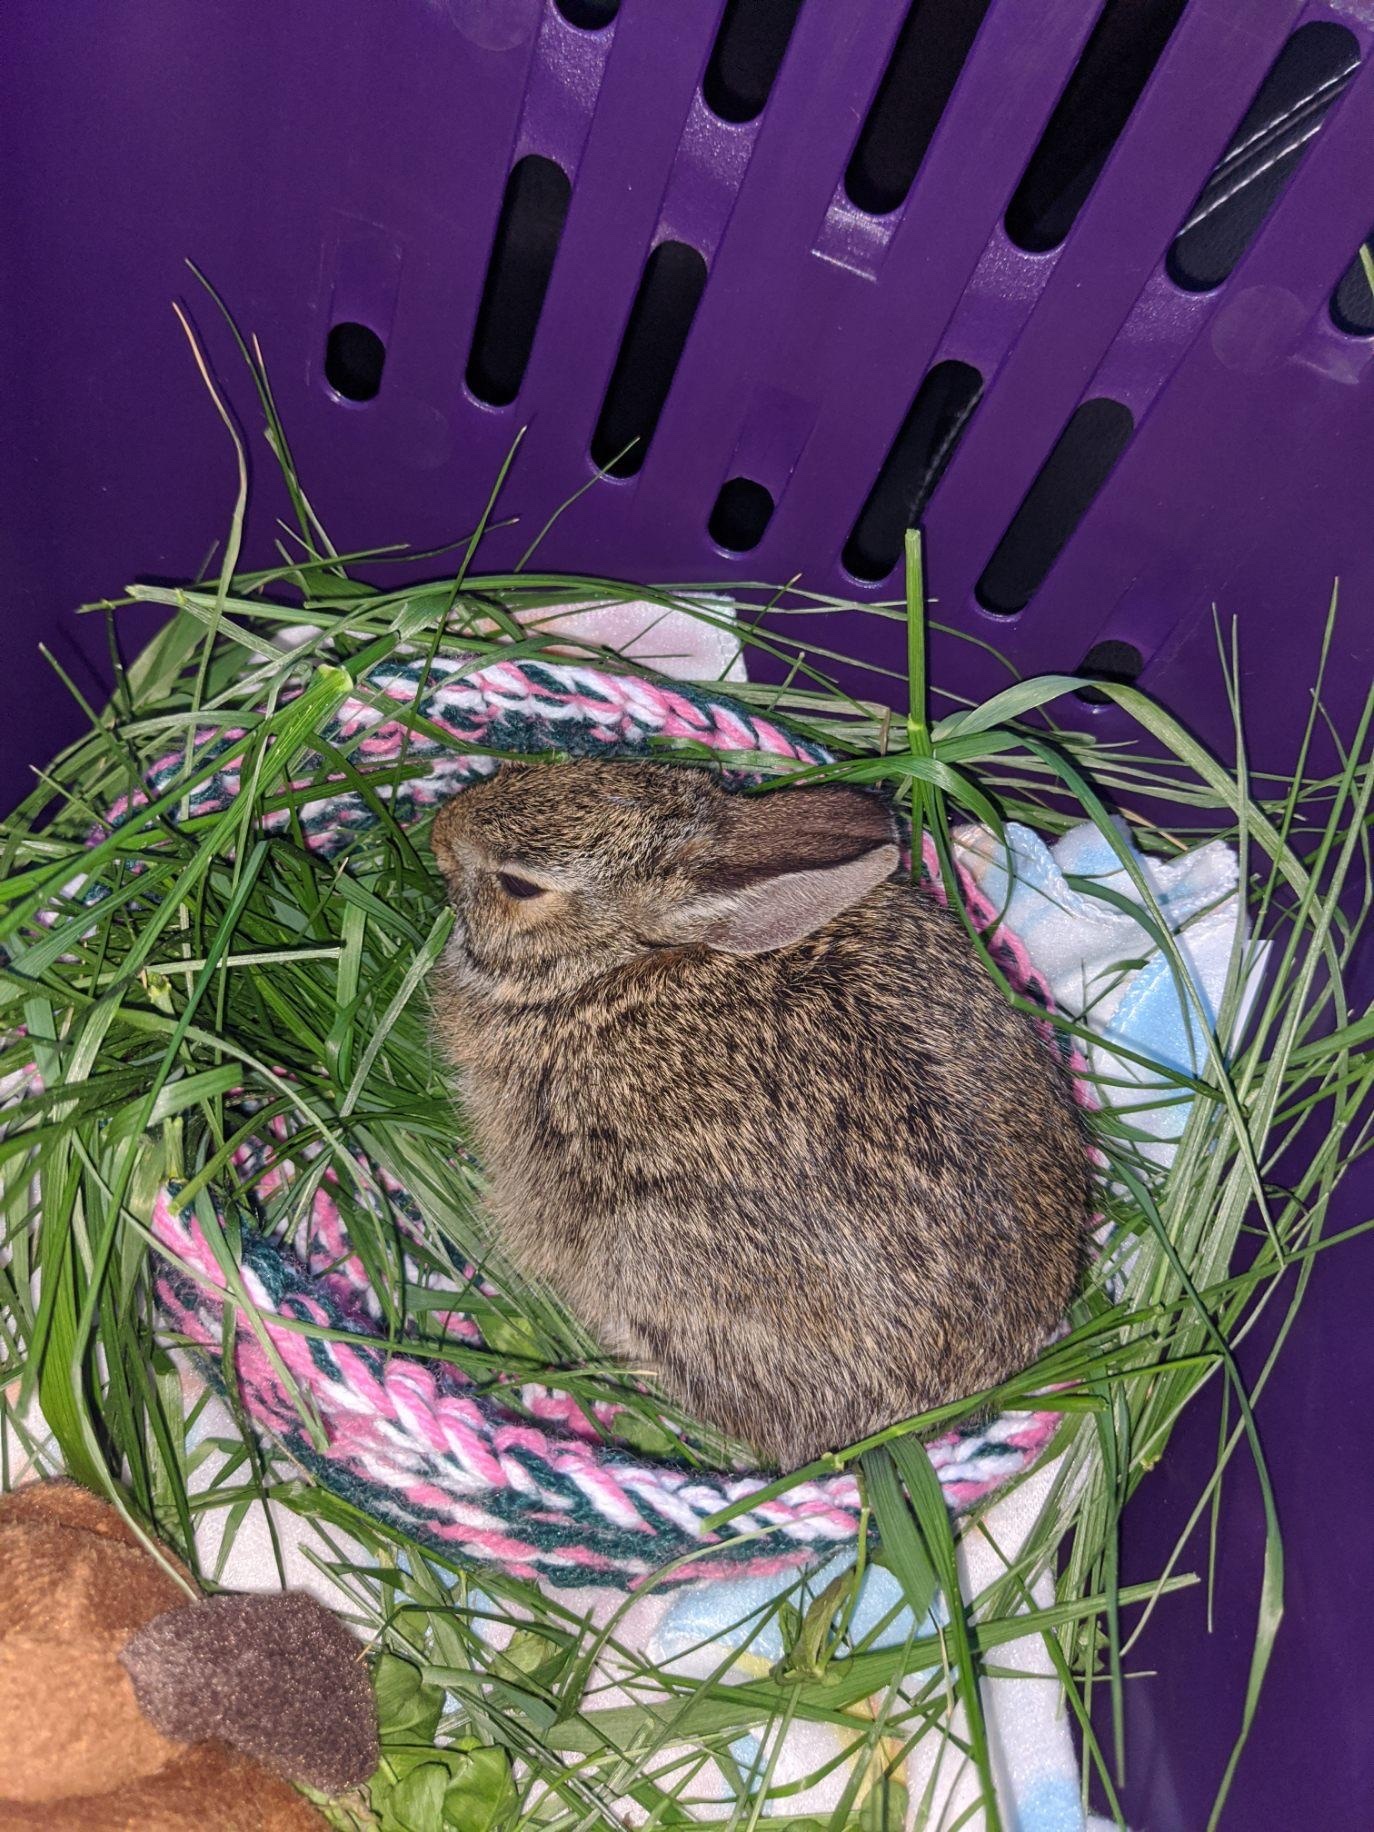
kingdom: Animalia
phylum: Chordata
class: Mammalia
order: Lagomorpha
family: Leporidae
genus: Sylvilagus
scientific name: Sylvilagus floridanus
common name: Eastern cottontail
